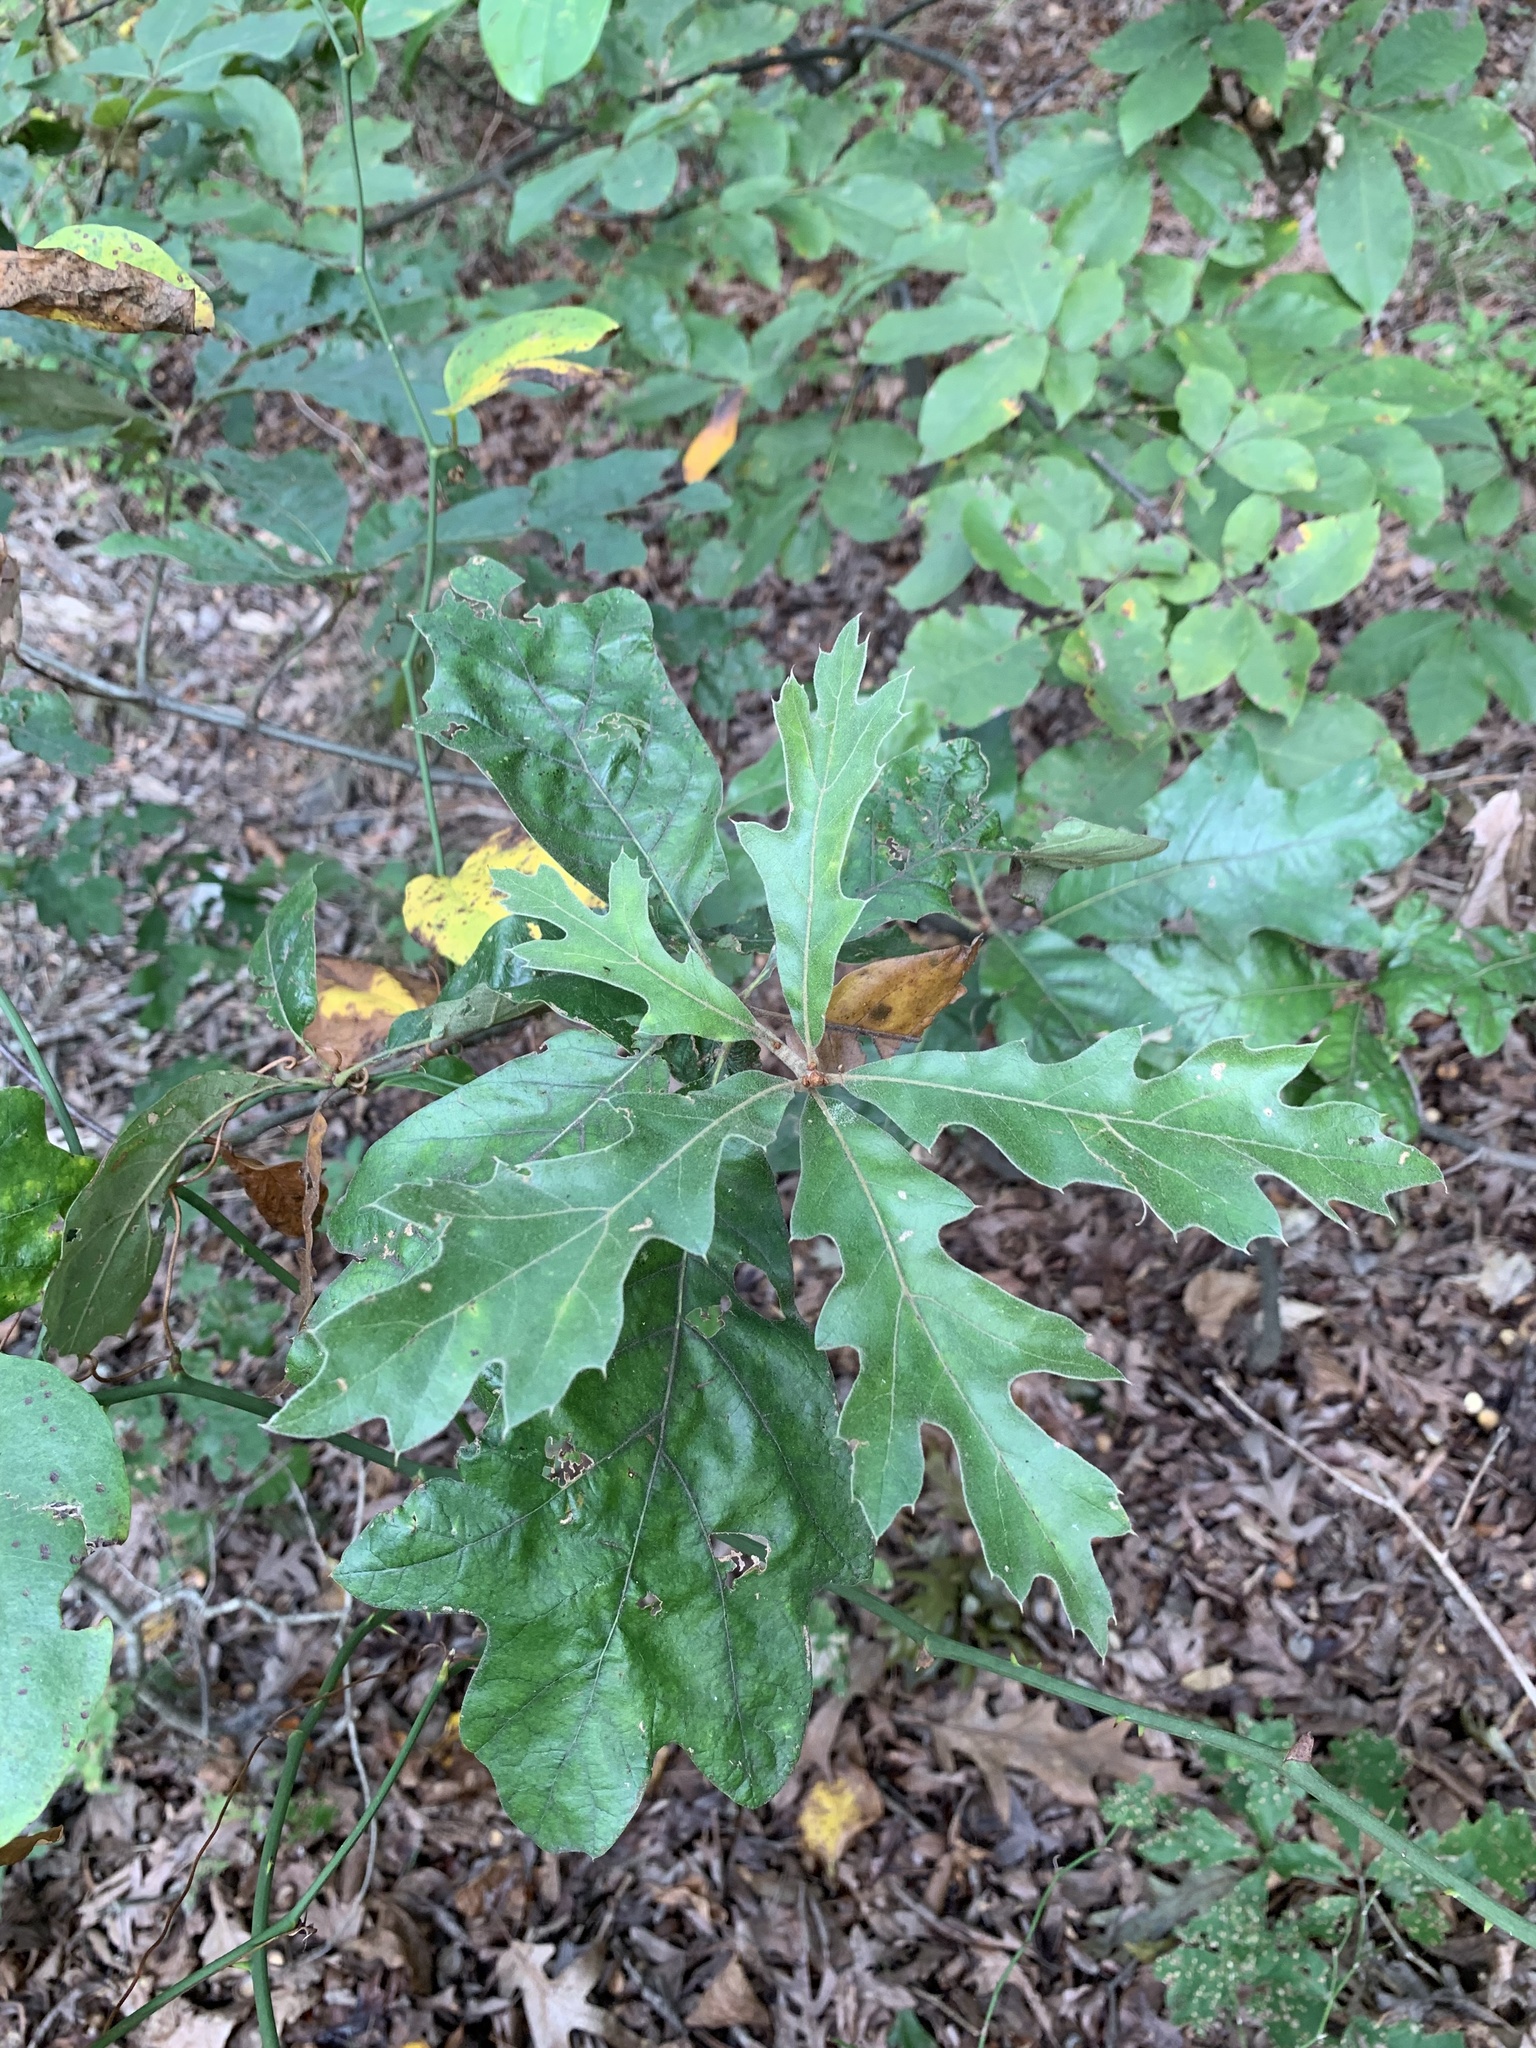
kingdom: Plantae
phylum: Tracheophyta
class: Magnoliopsida
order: Fagales
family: Fagaceae
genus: Quercus
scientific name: Quercus falcata
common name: Southern red oak
